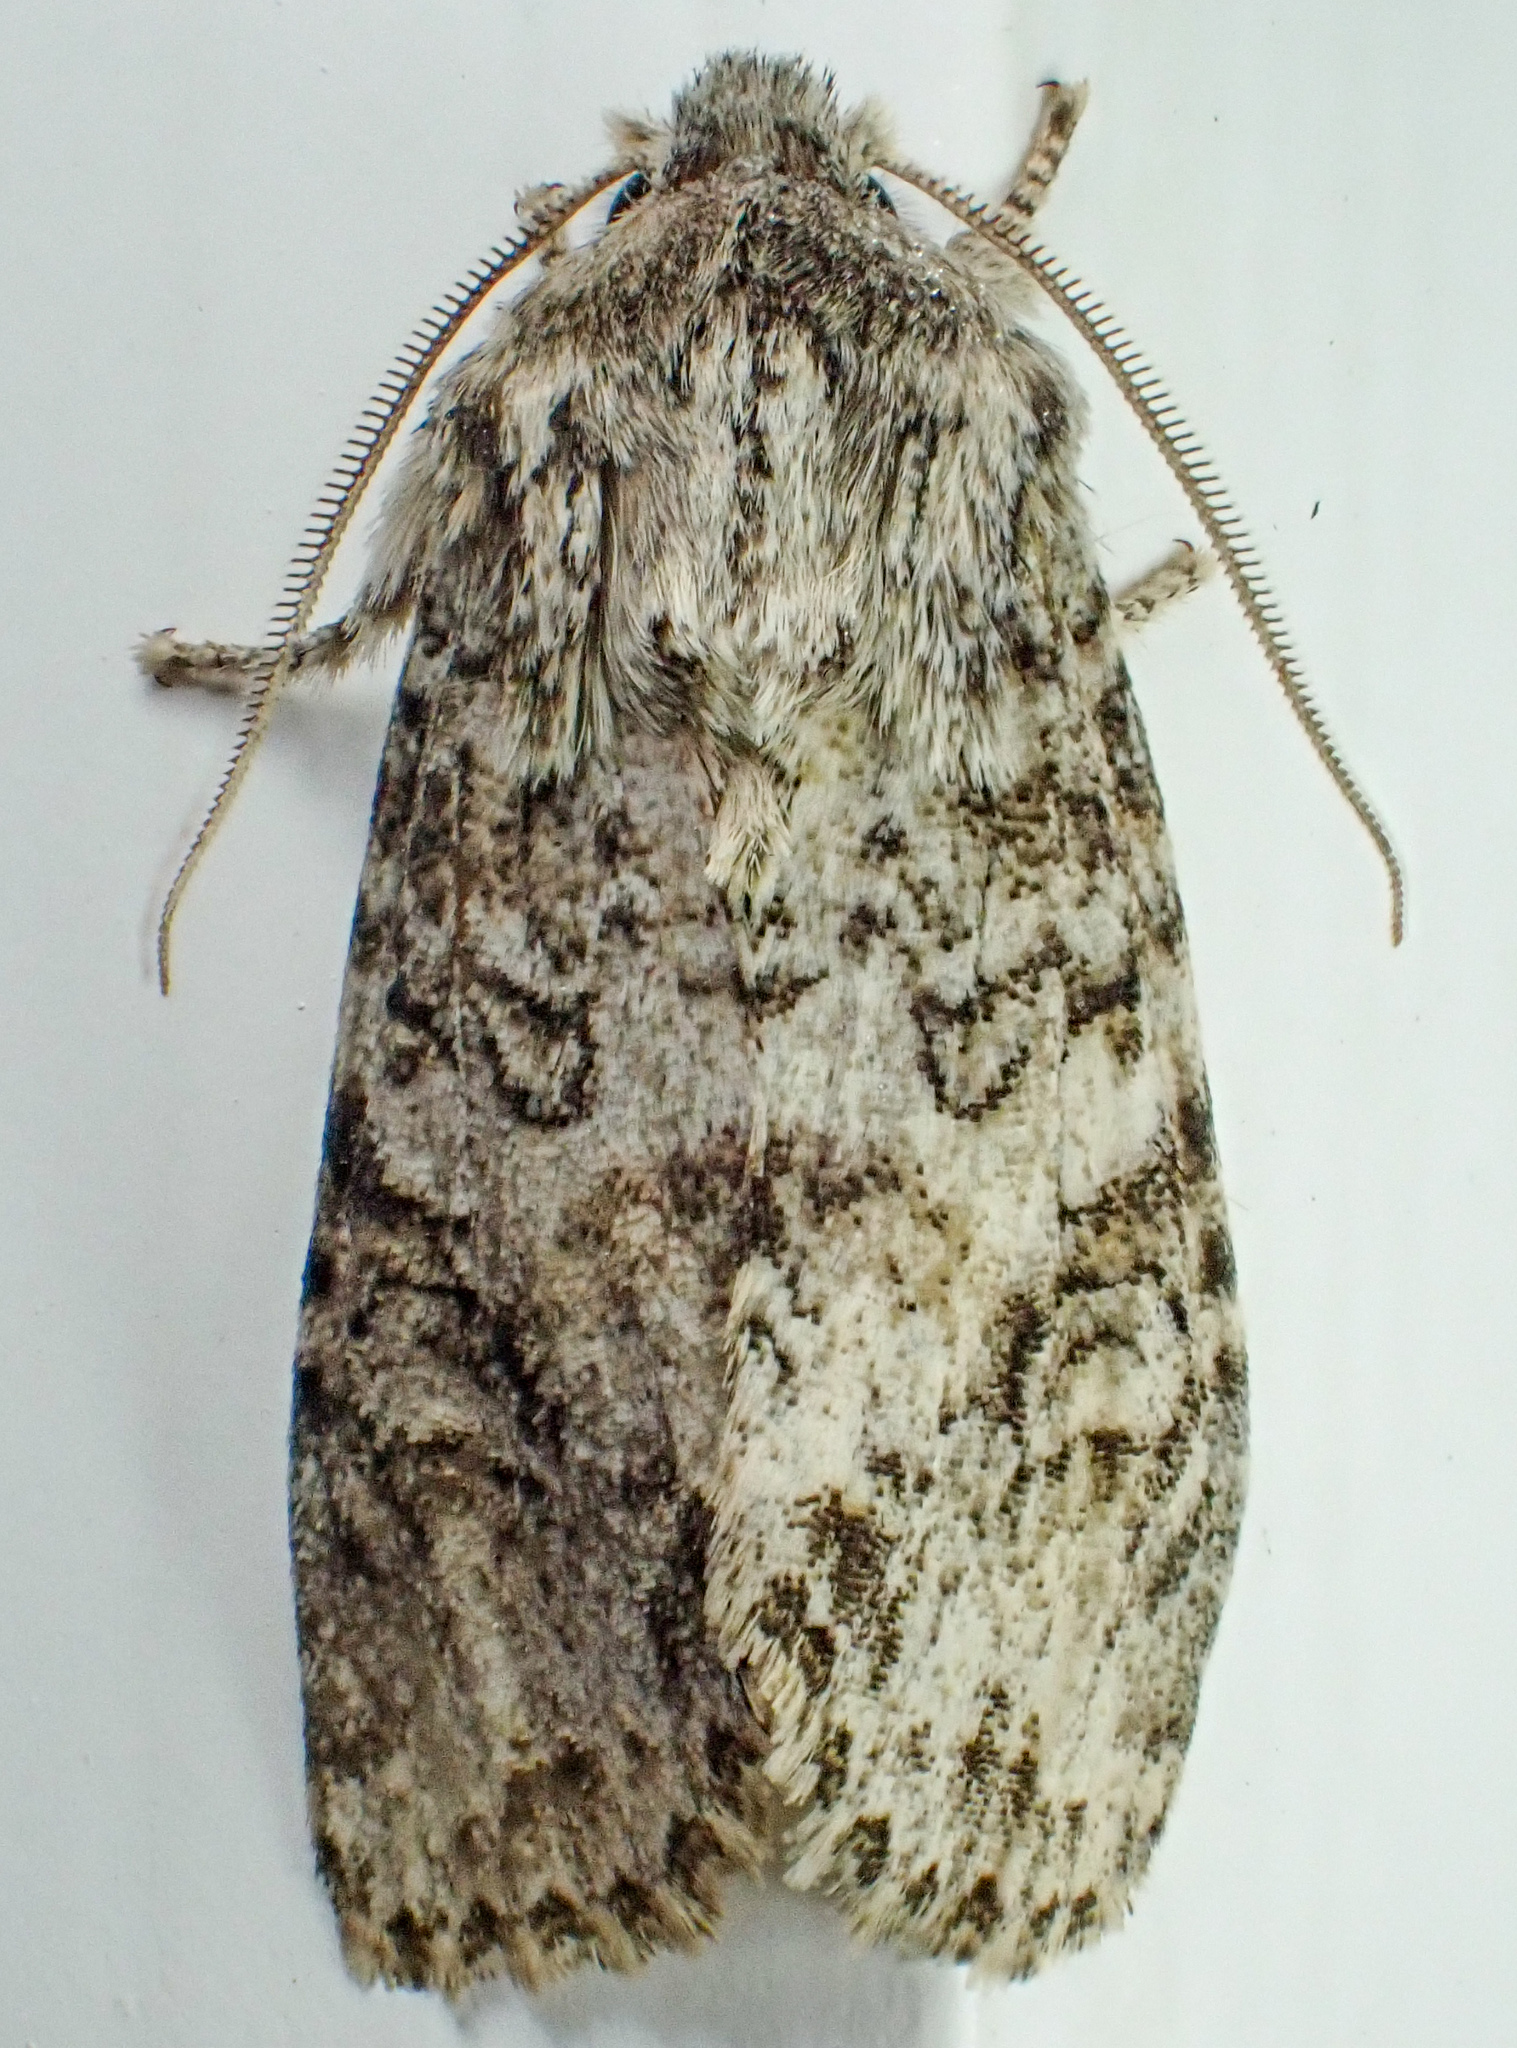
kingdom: Animalia
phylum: Arthropoda
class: Insecta
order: Lepidoptera
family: Noctuidae
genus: Egira
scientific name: Egira cognata
